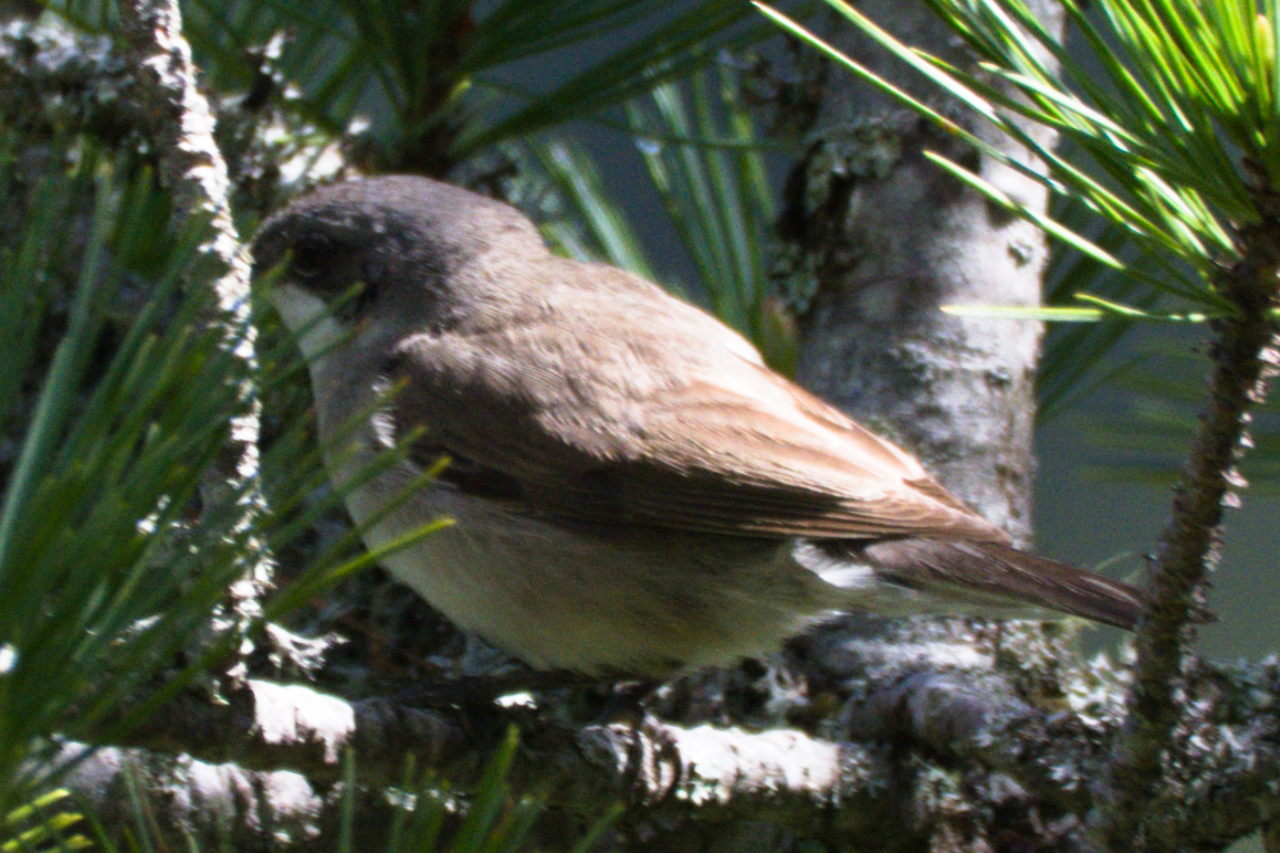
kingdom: Animalia
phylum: Chordata
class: Aves
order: Passeriformes
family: Sylviidae
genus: Sylvia
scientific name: Sylvia curruca
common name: Lesser whitethroat
